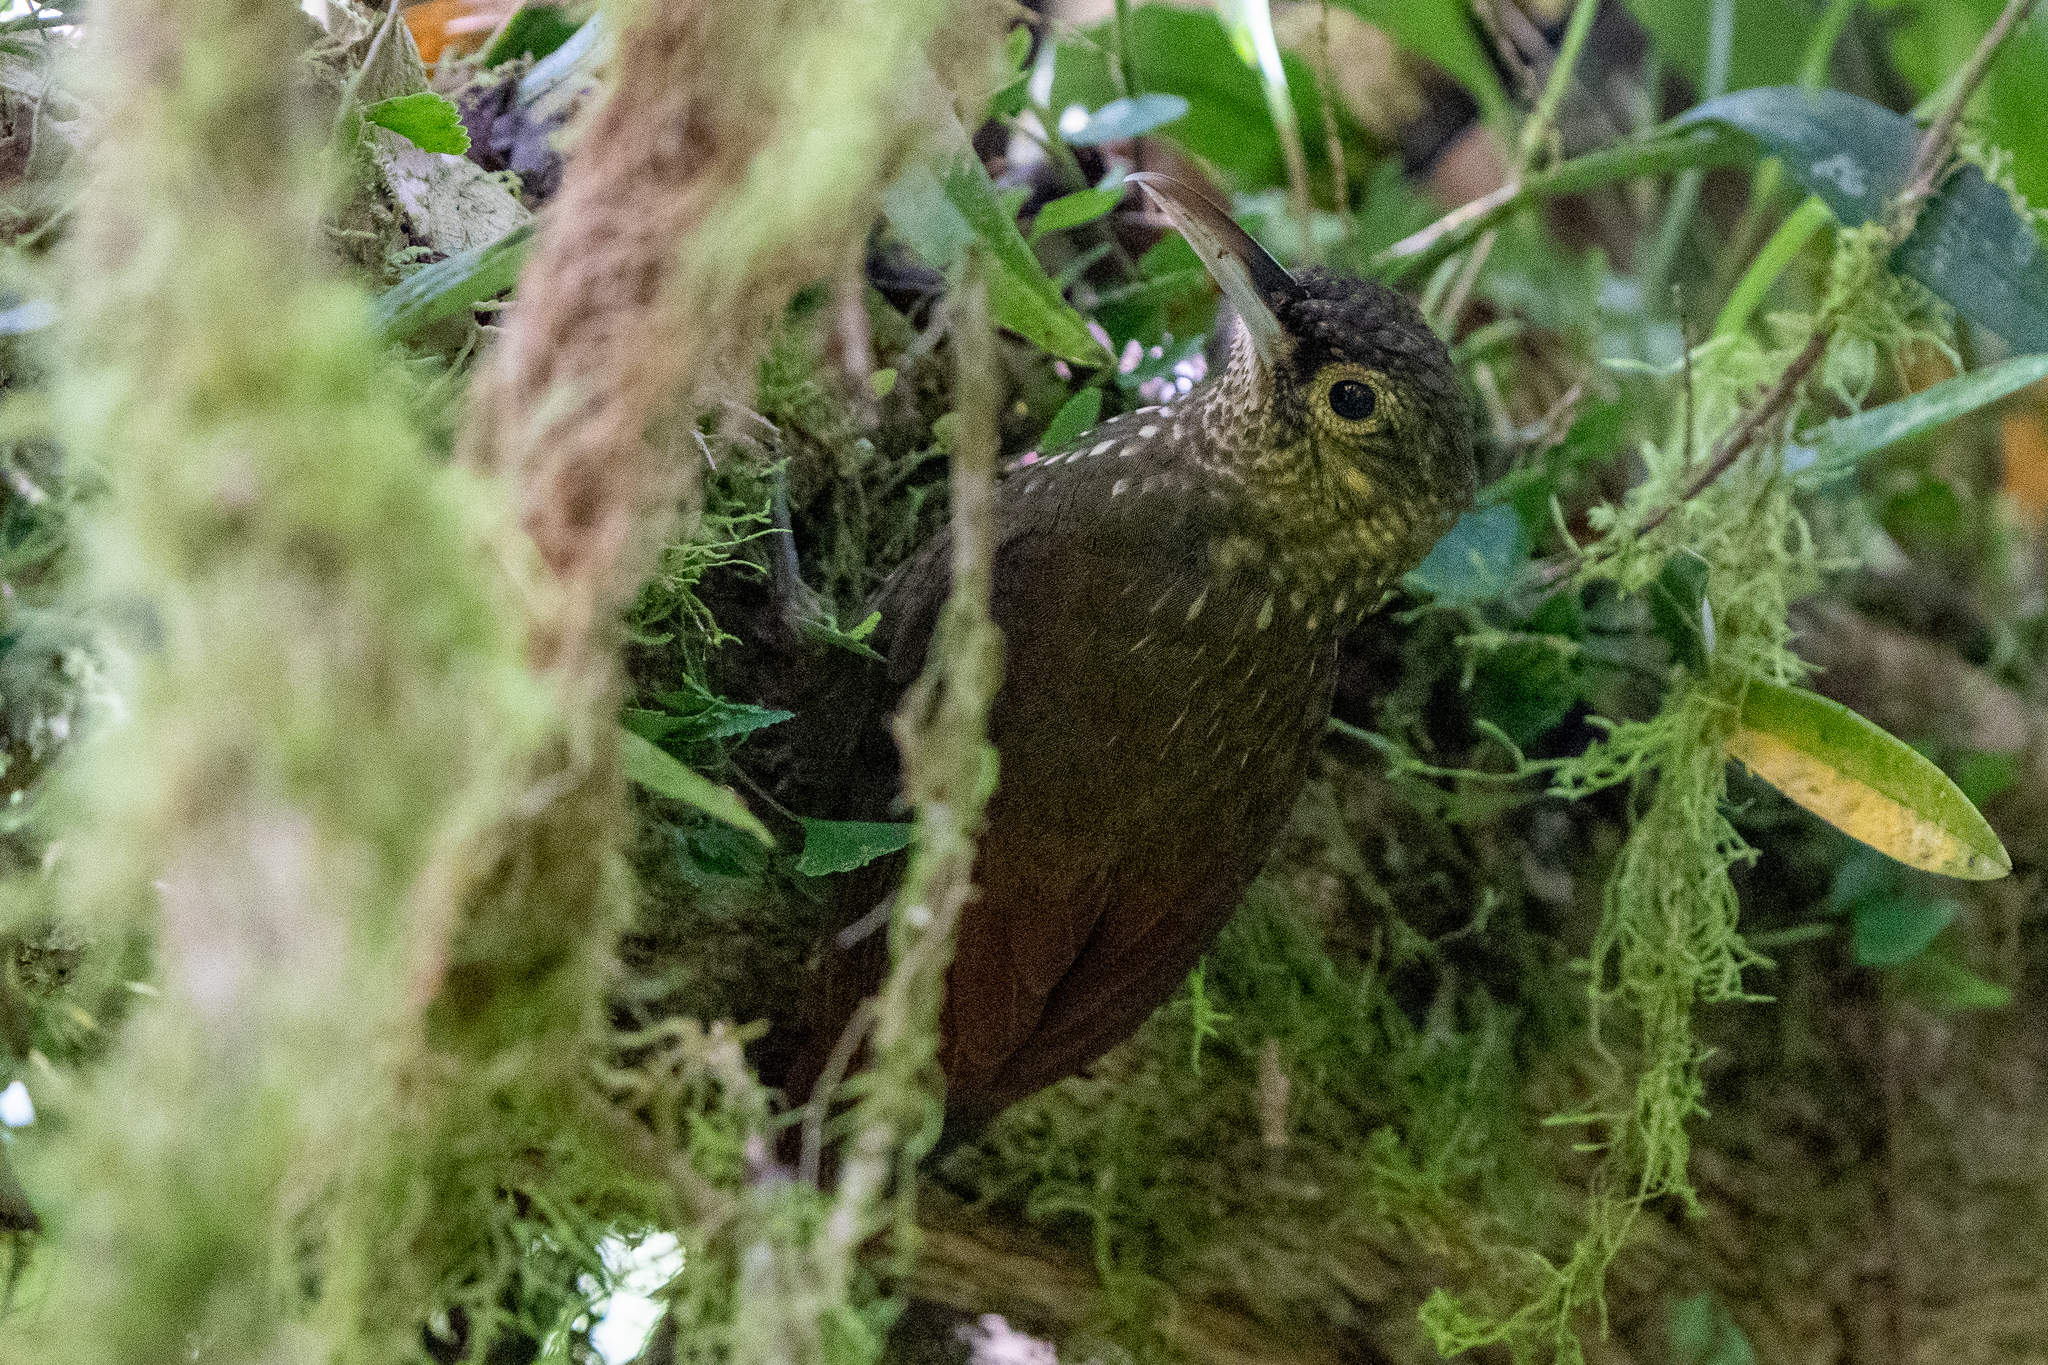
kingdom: Animalia
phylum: Chordata
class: Aves
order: Passeriformes
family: Furnariidae
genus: Xiphorhynchus
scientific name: Xiphorhynchus erythropygius
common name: Spotted woodcreeper
